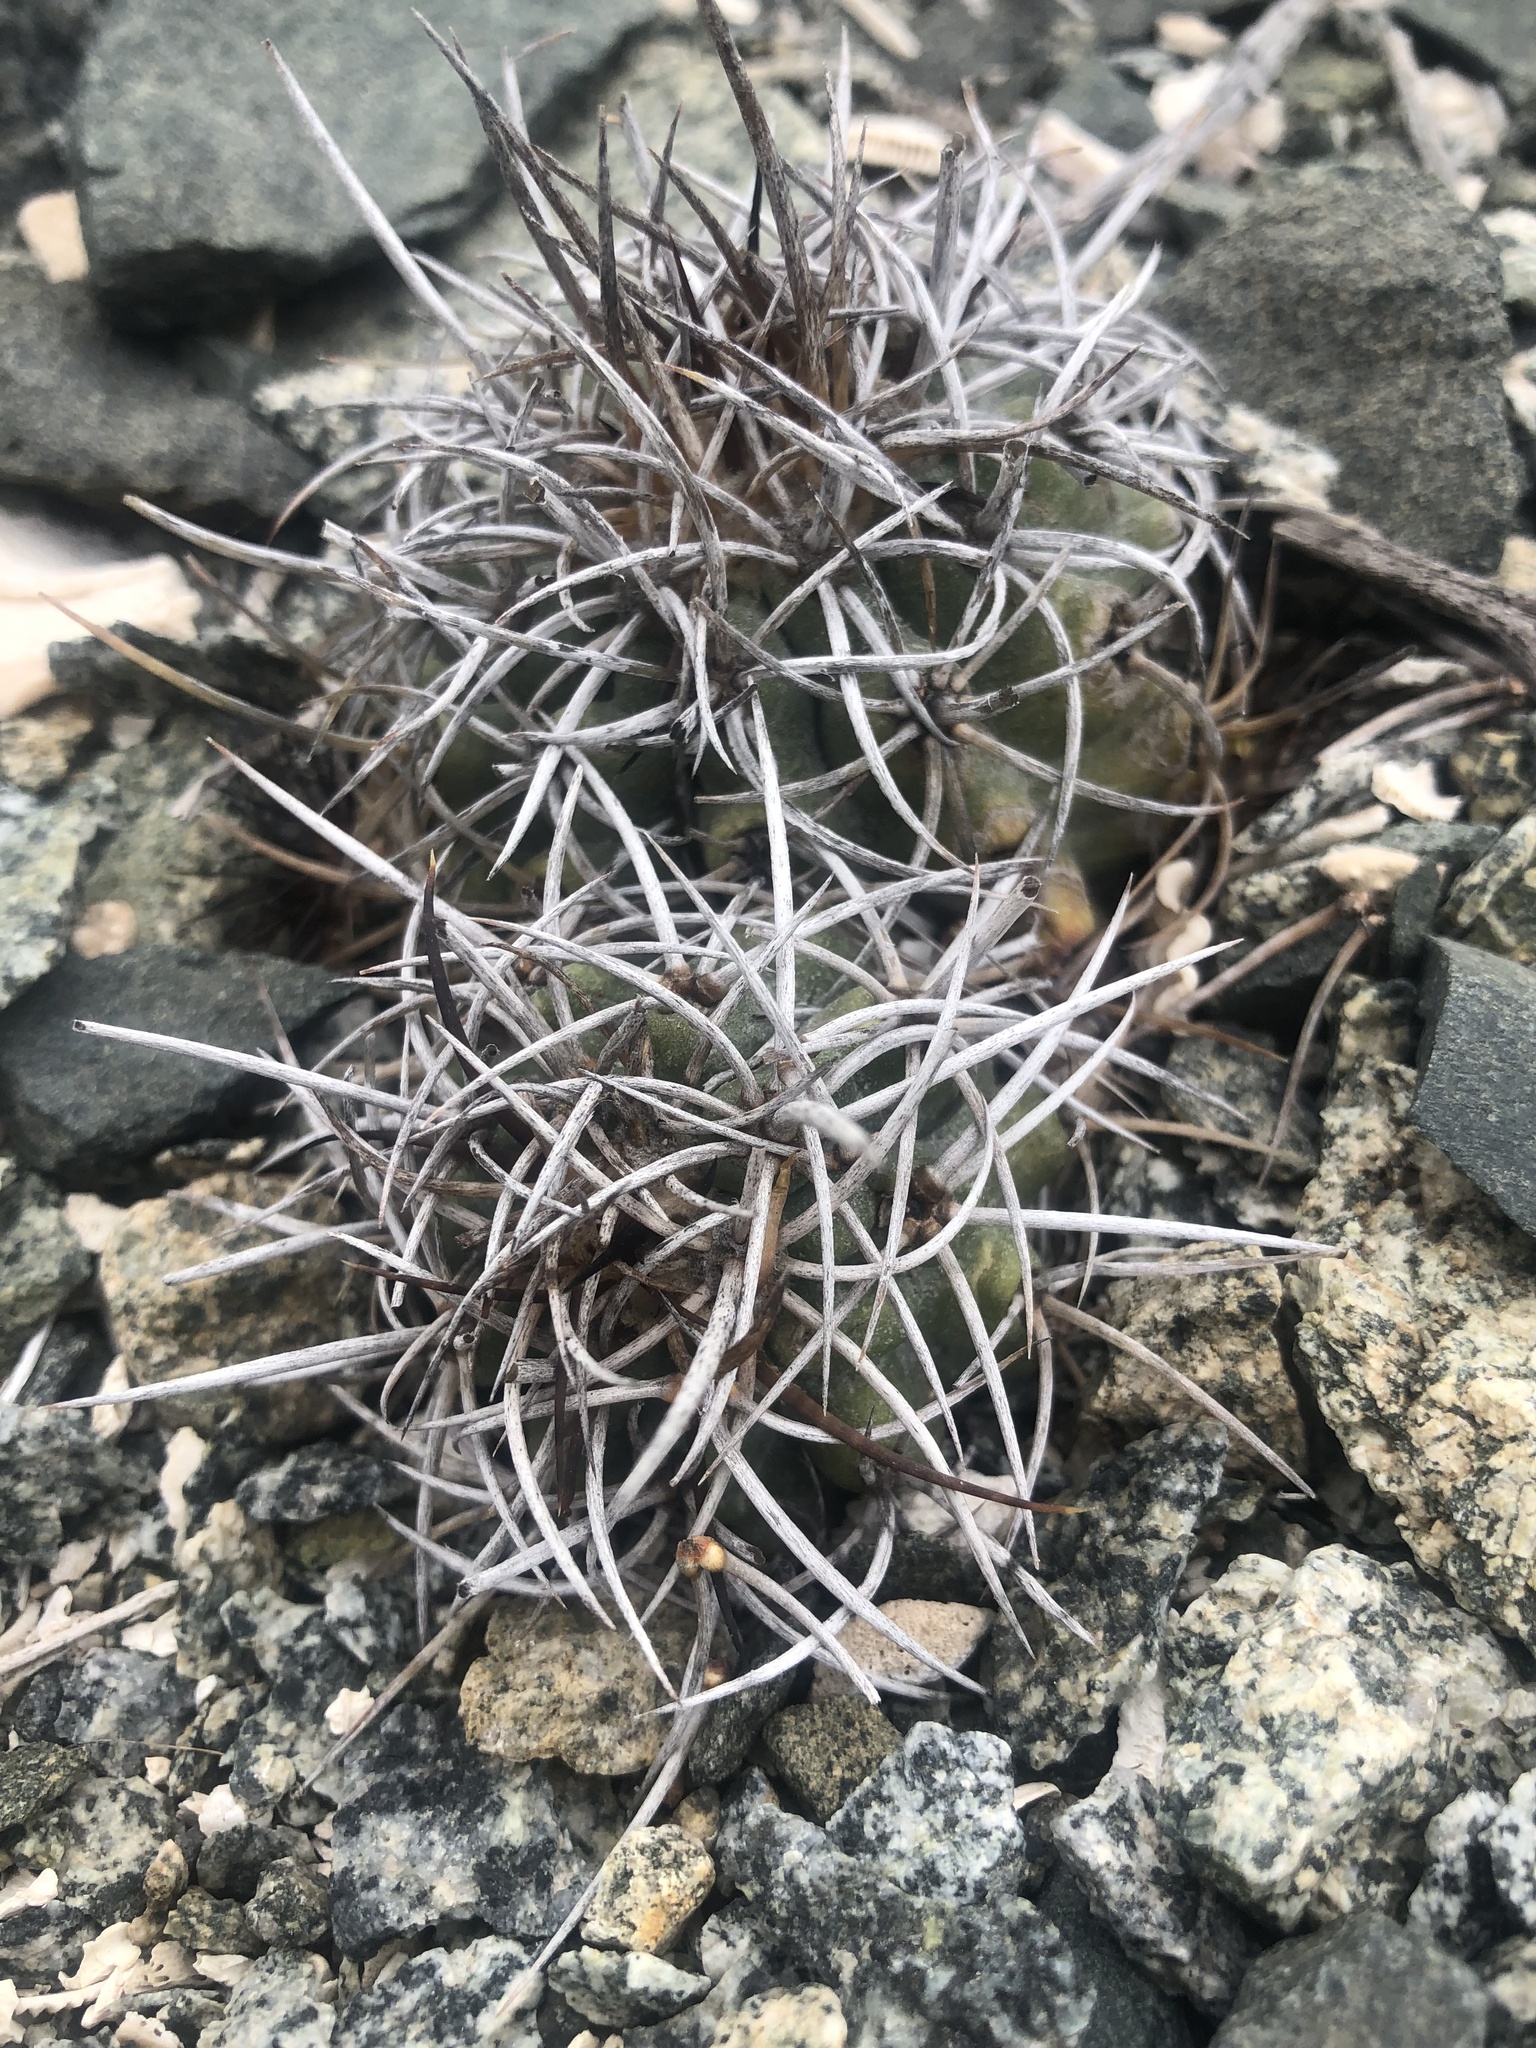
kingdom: Plantae
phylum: Tracheophyta
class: Magnoliopsida
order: Caryophyllales
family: Cactaceae
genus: Copiapoa
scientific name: Copiapoa coquimbana
